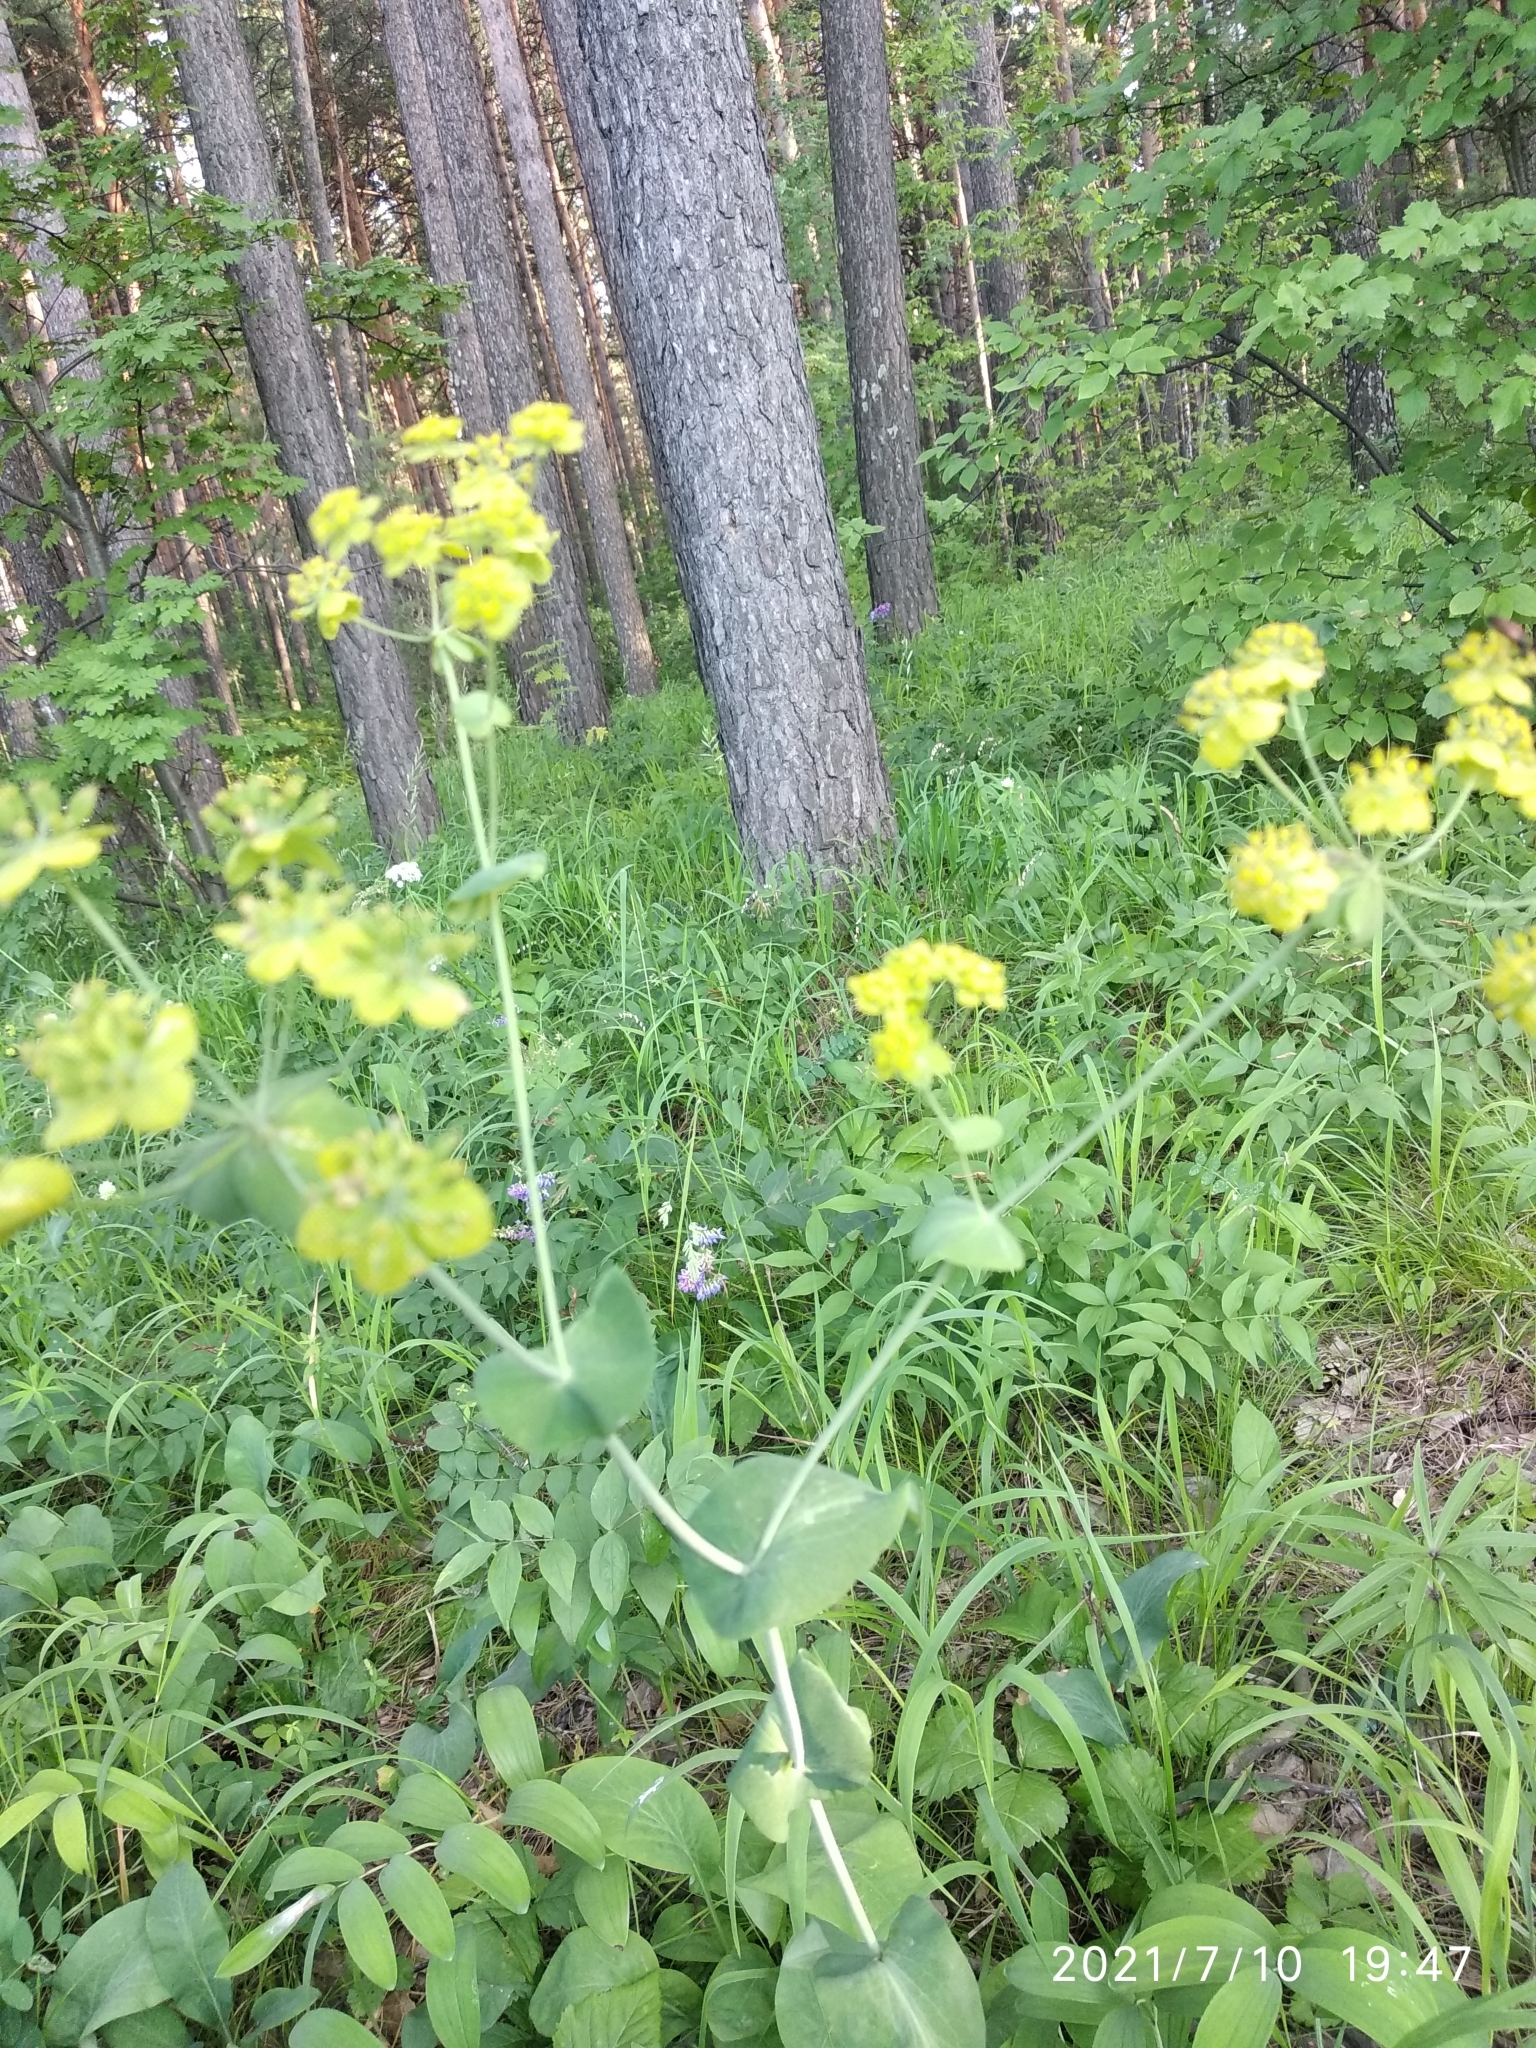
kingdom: Plantae
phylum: Tracheophyta
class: Magnoliopsida
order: Apiales
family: Apiaceae
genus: Bupleurum
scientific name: Bupleurum aureum
